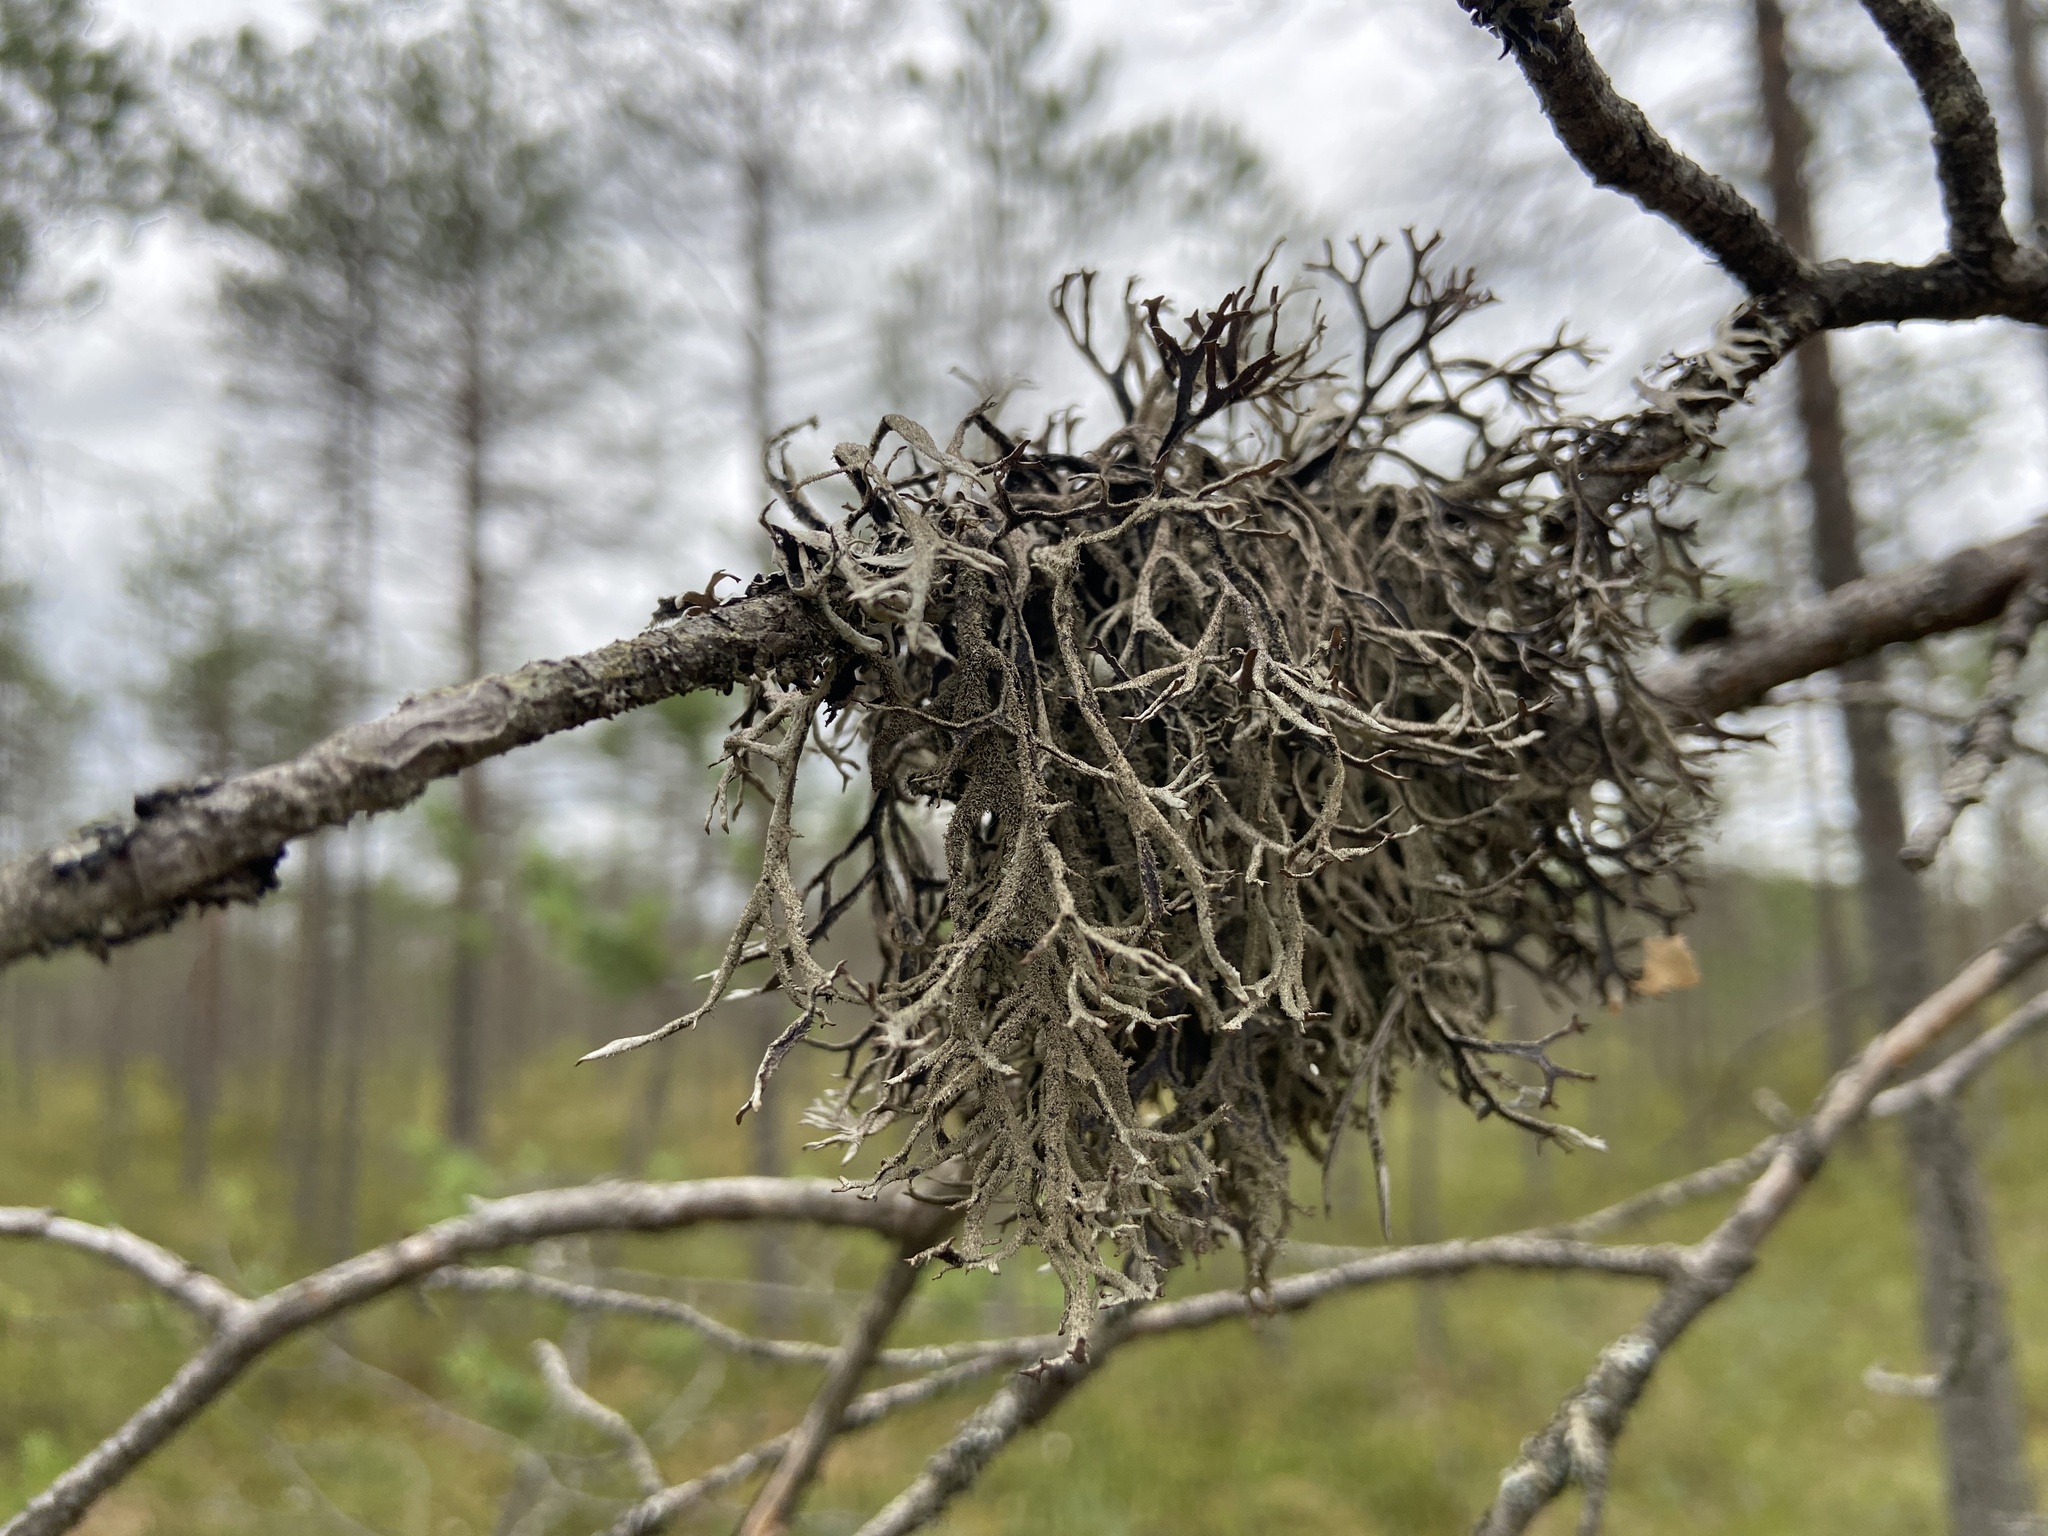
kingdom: Fungi
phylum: Ascomycota
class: Lecanoromycetes
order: Lecanorales
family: Parmeliaceae
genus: Pseudevernia
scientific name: Pseudevernia furfuracea
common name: Tree moss
